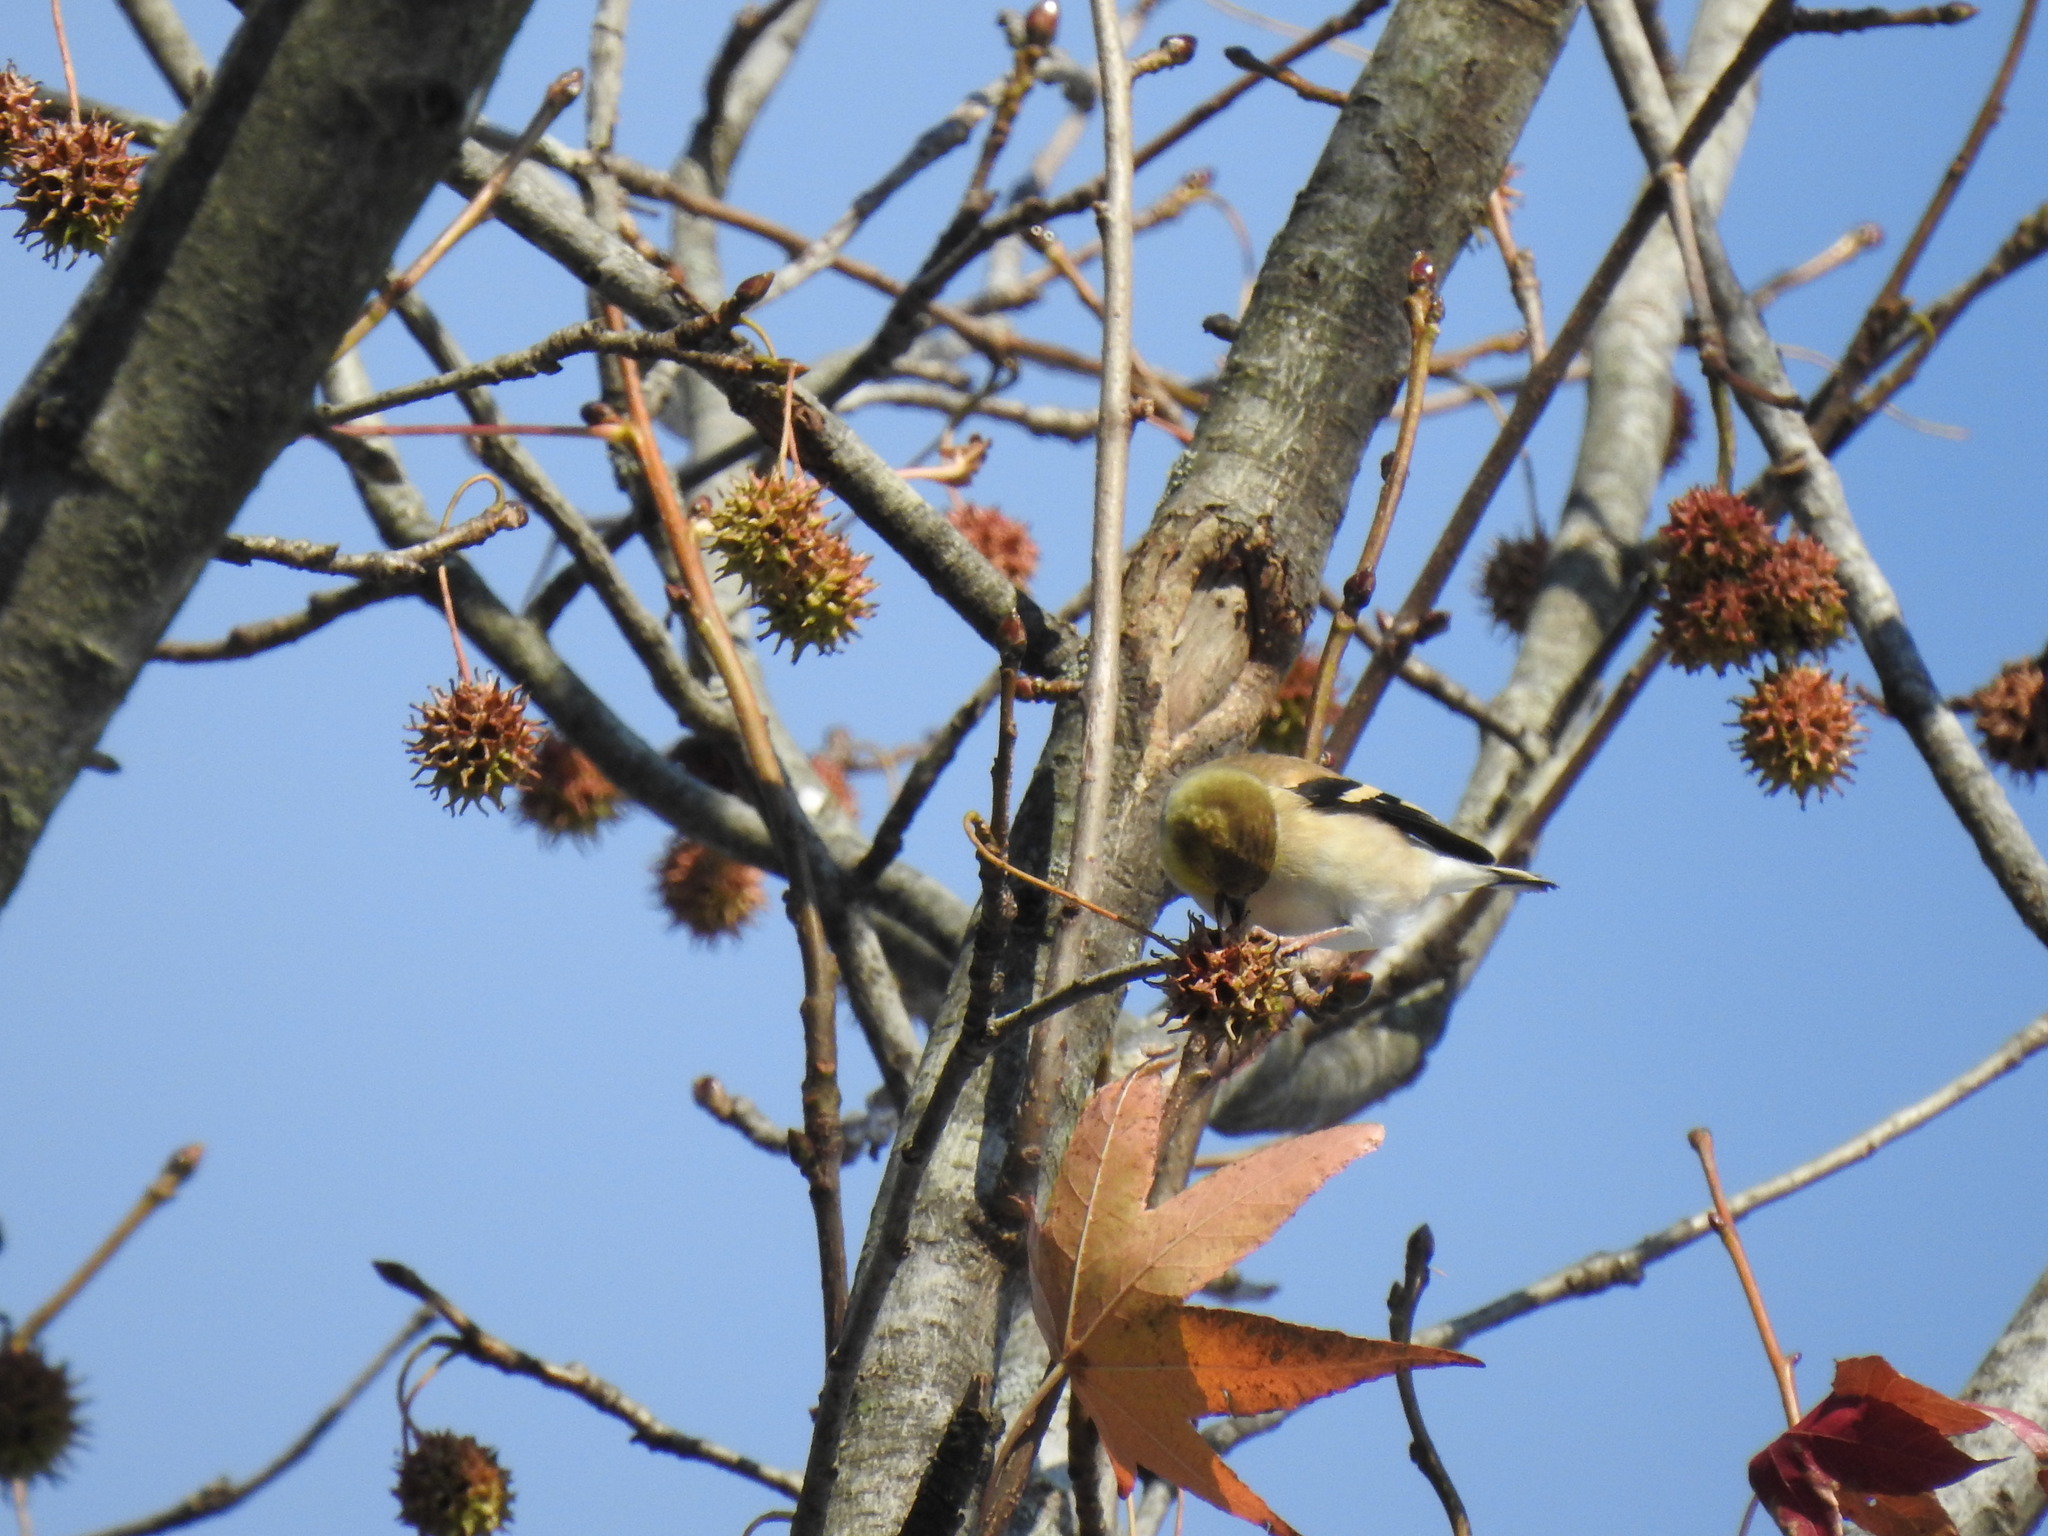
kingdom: Animalia
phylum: Chordata
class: Aves
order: Passeriformes
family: Fringillidae
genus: Spinus
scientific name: Spinus tristis
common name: American goldfinch
